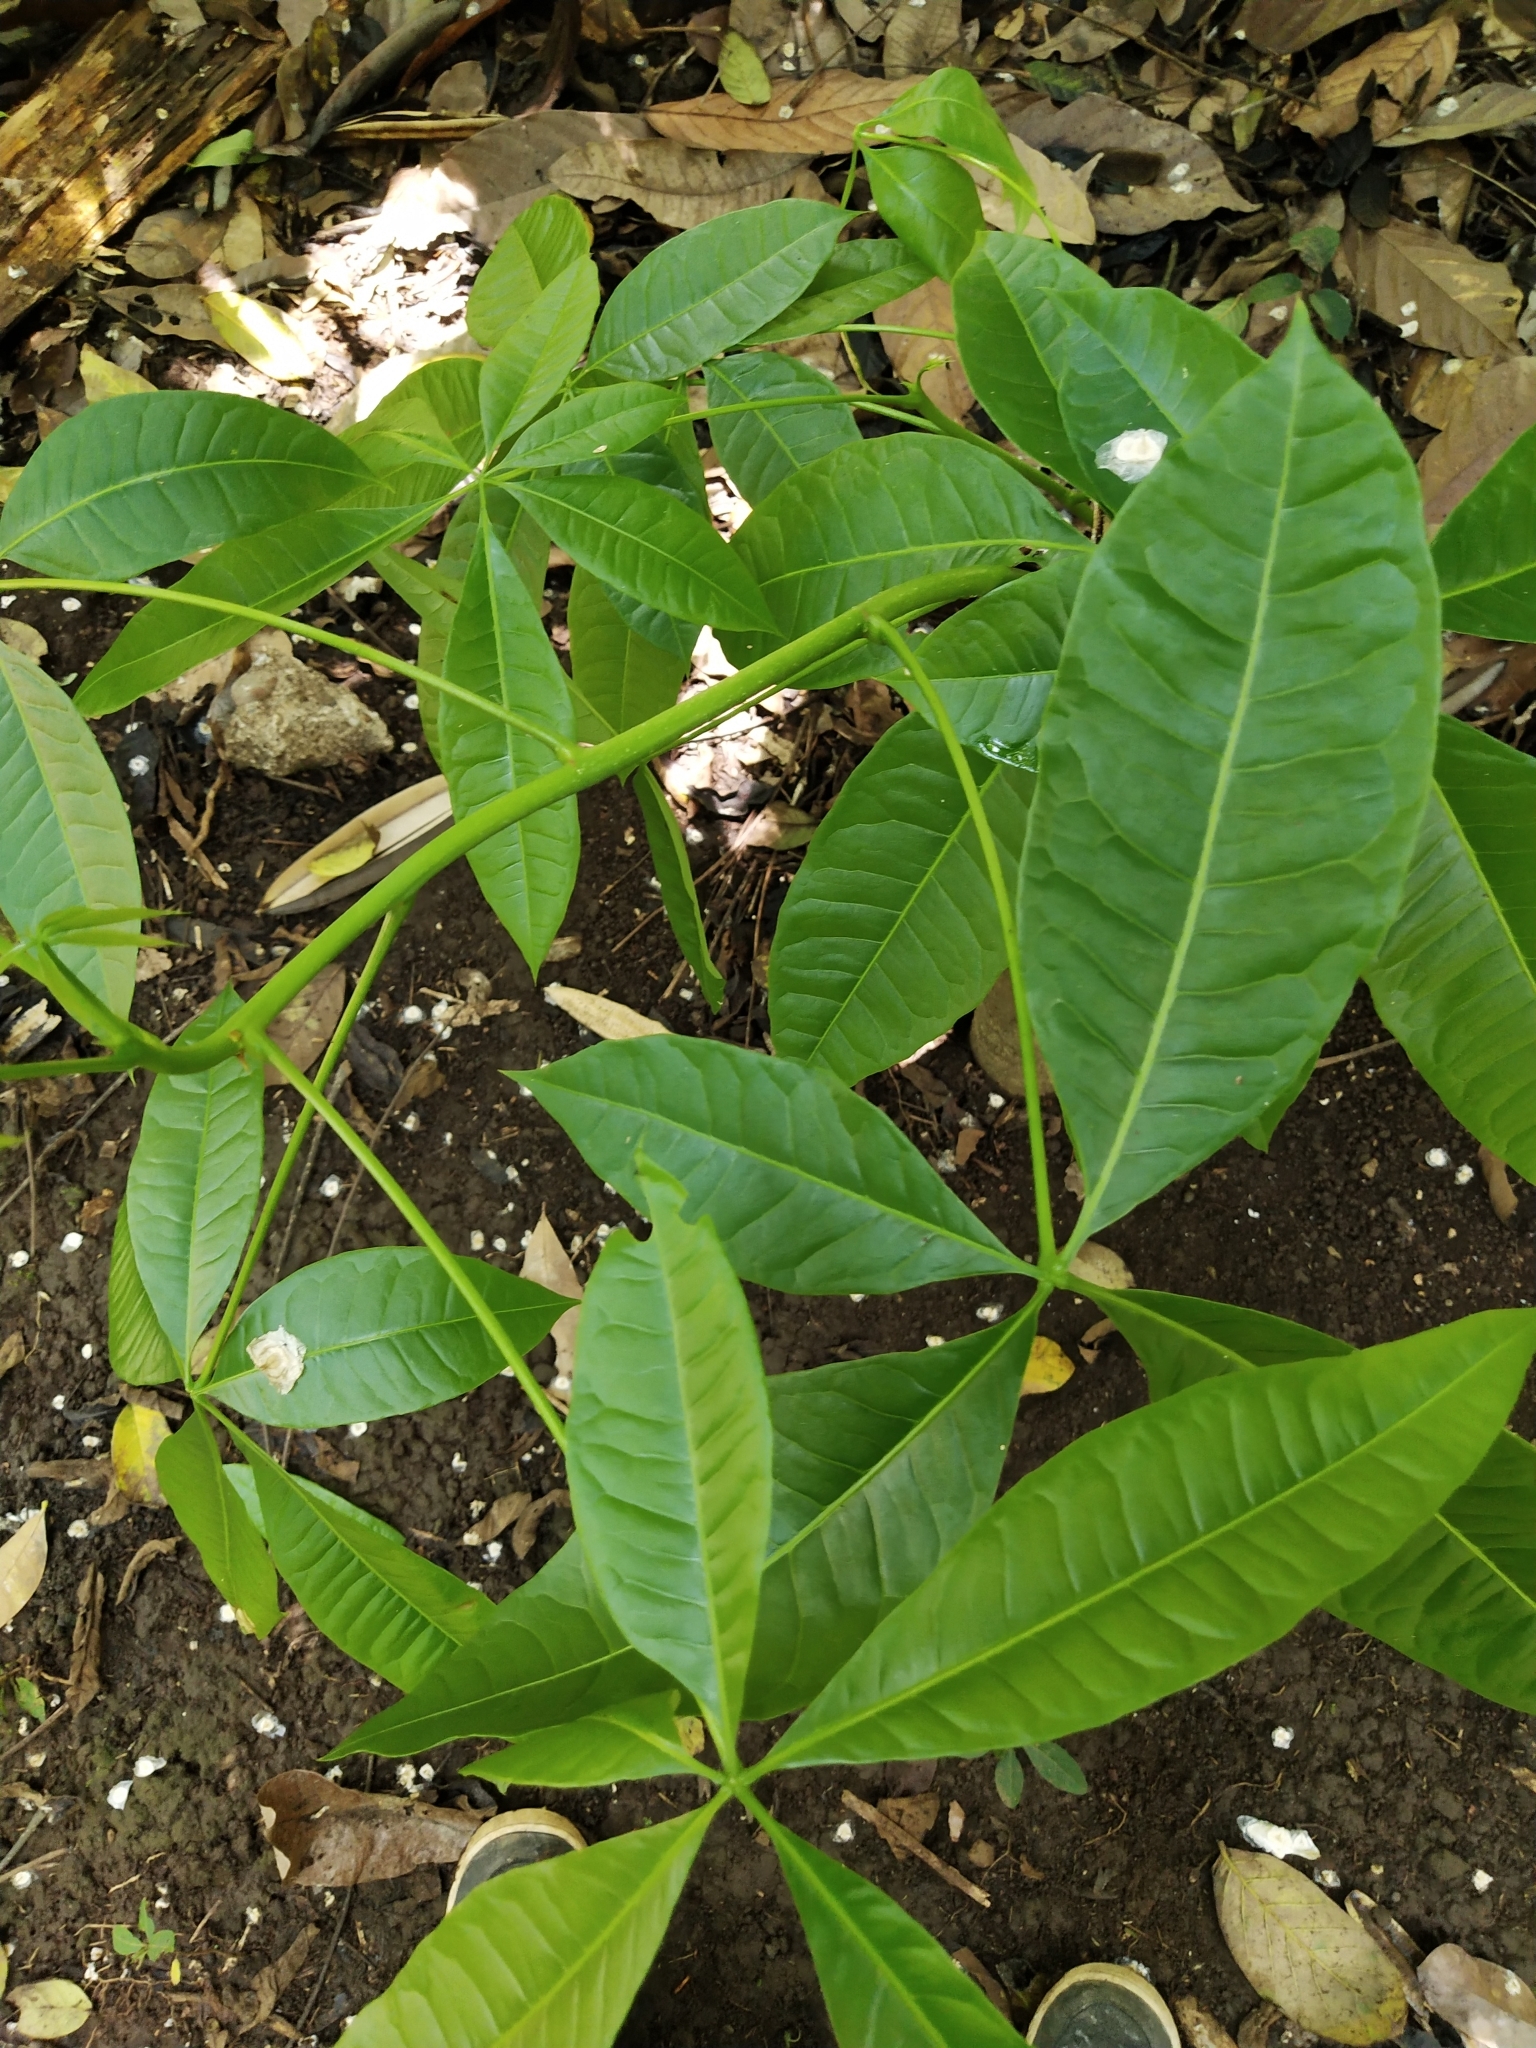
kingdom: Plantae
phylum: Tracheophyta
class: Magnoliopsida
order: Malvales
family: Malvaceae
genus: Pachira
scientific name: Pachira aquatica
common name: Provision-tree
